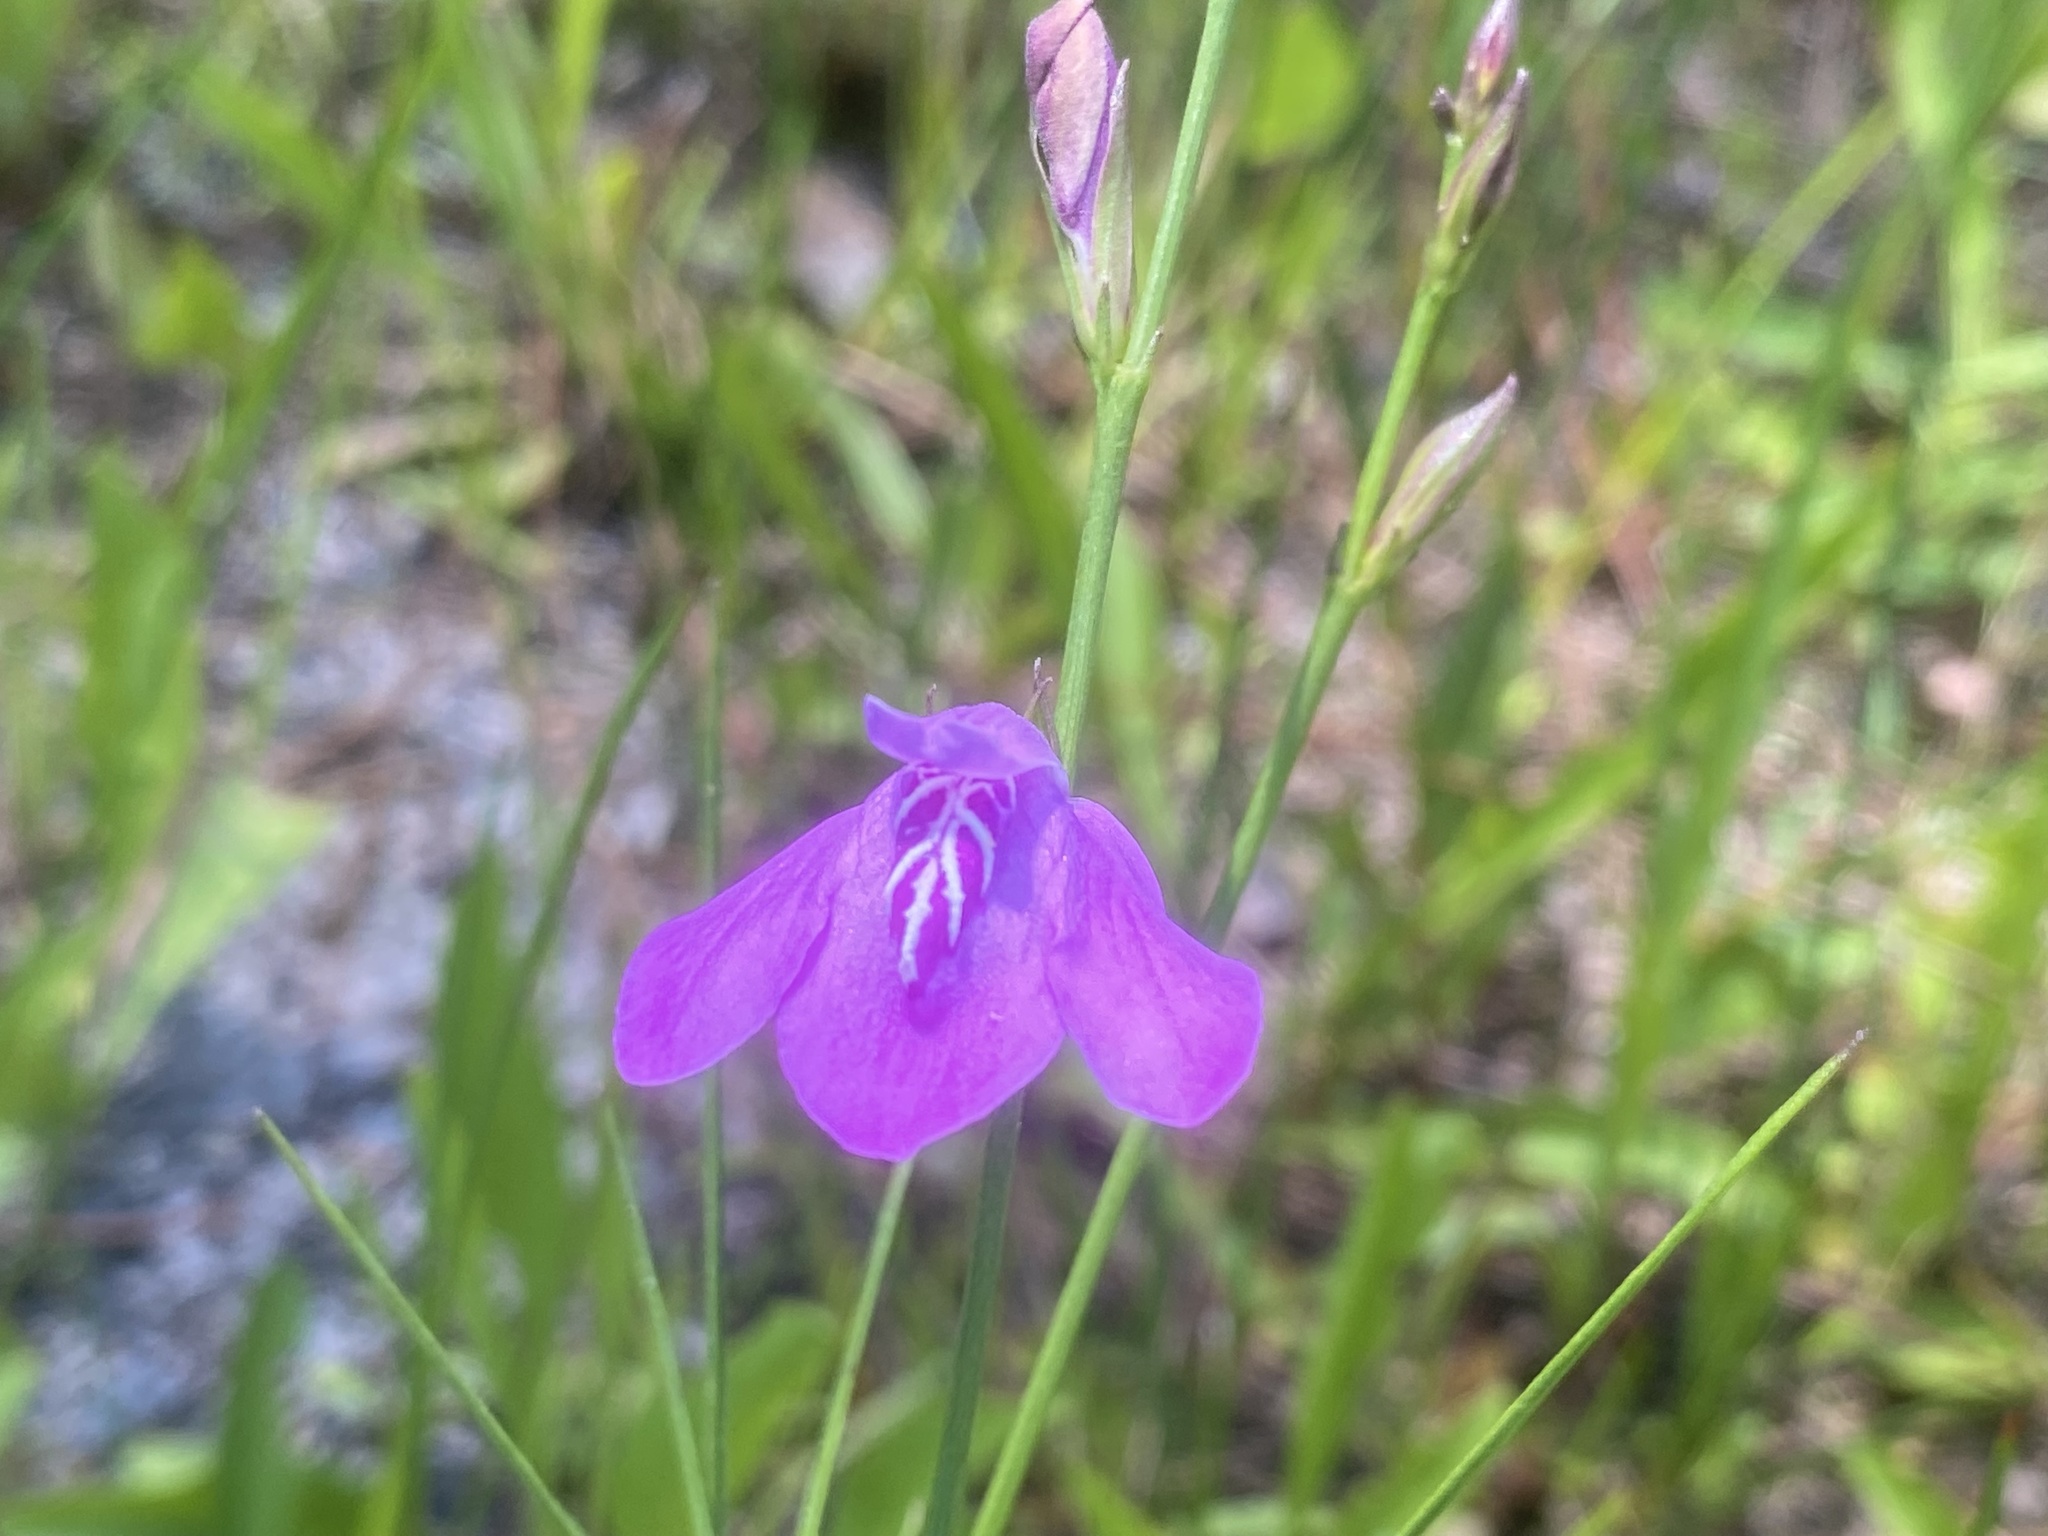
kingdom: Plantae
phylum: Tracheophyta
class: Magnoliopsida
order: Lamiales
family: Acanthaceae
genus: Dianthera
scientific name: Dianthera angusta
